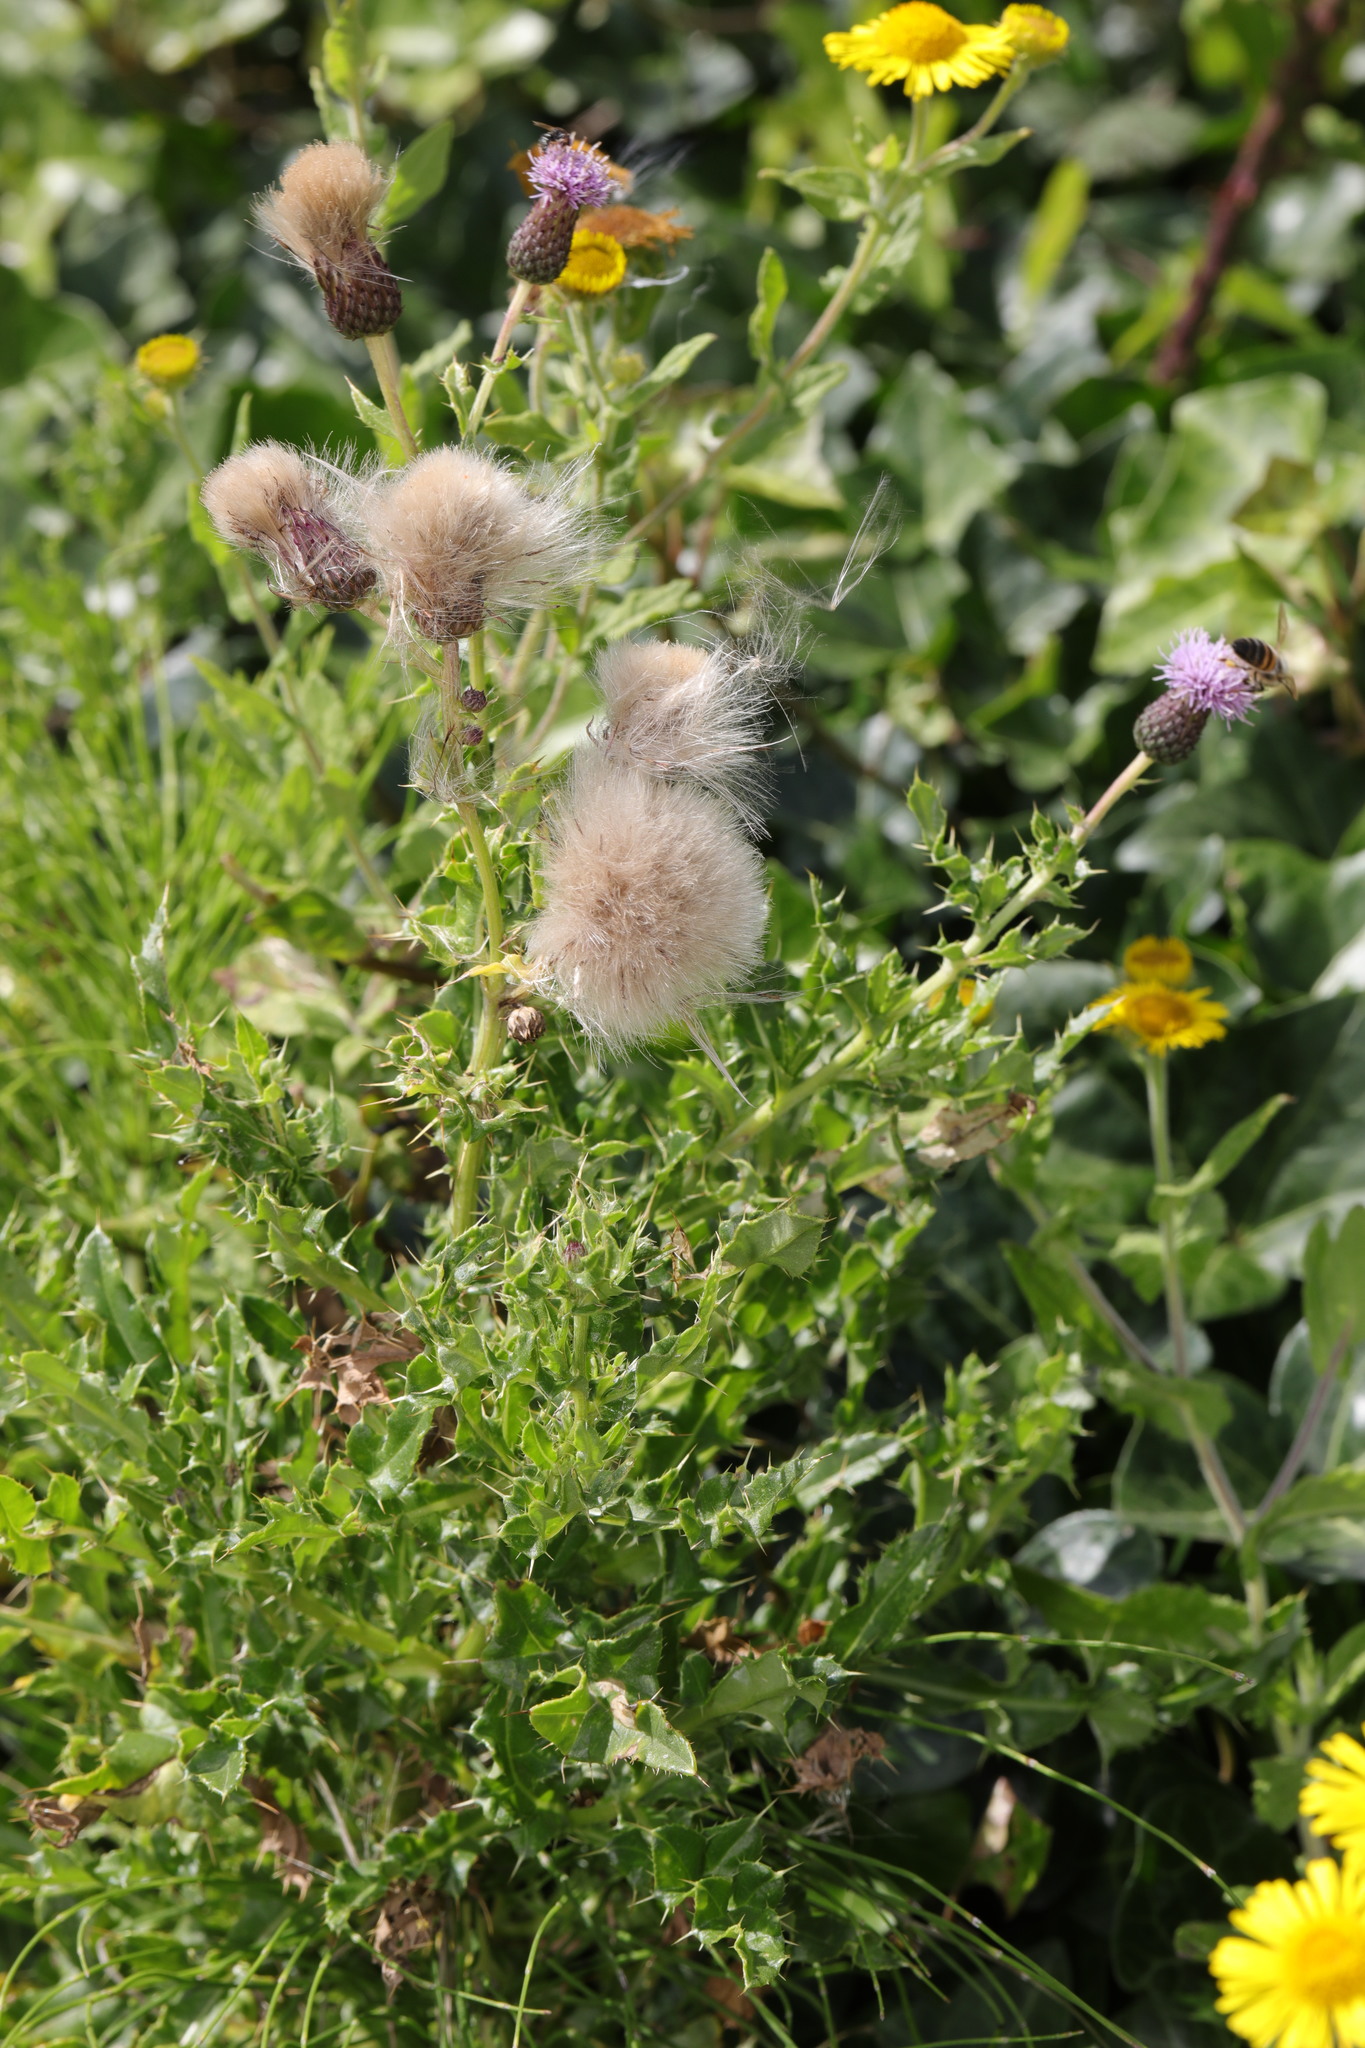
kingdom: Plantae
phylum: Tracheophyta
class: Magnoliopsida
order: Asterales
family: Asteraceae
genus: Cirsium
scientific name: Cirsium arvense
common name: Creeping thistle
